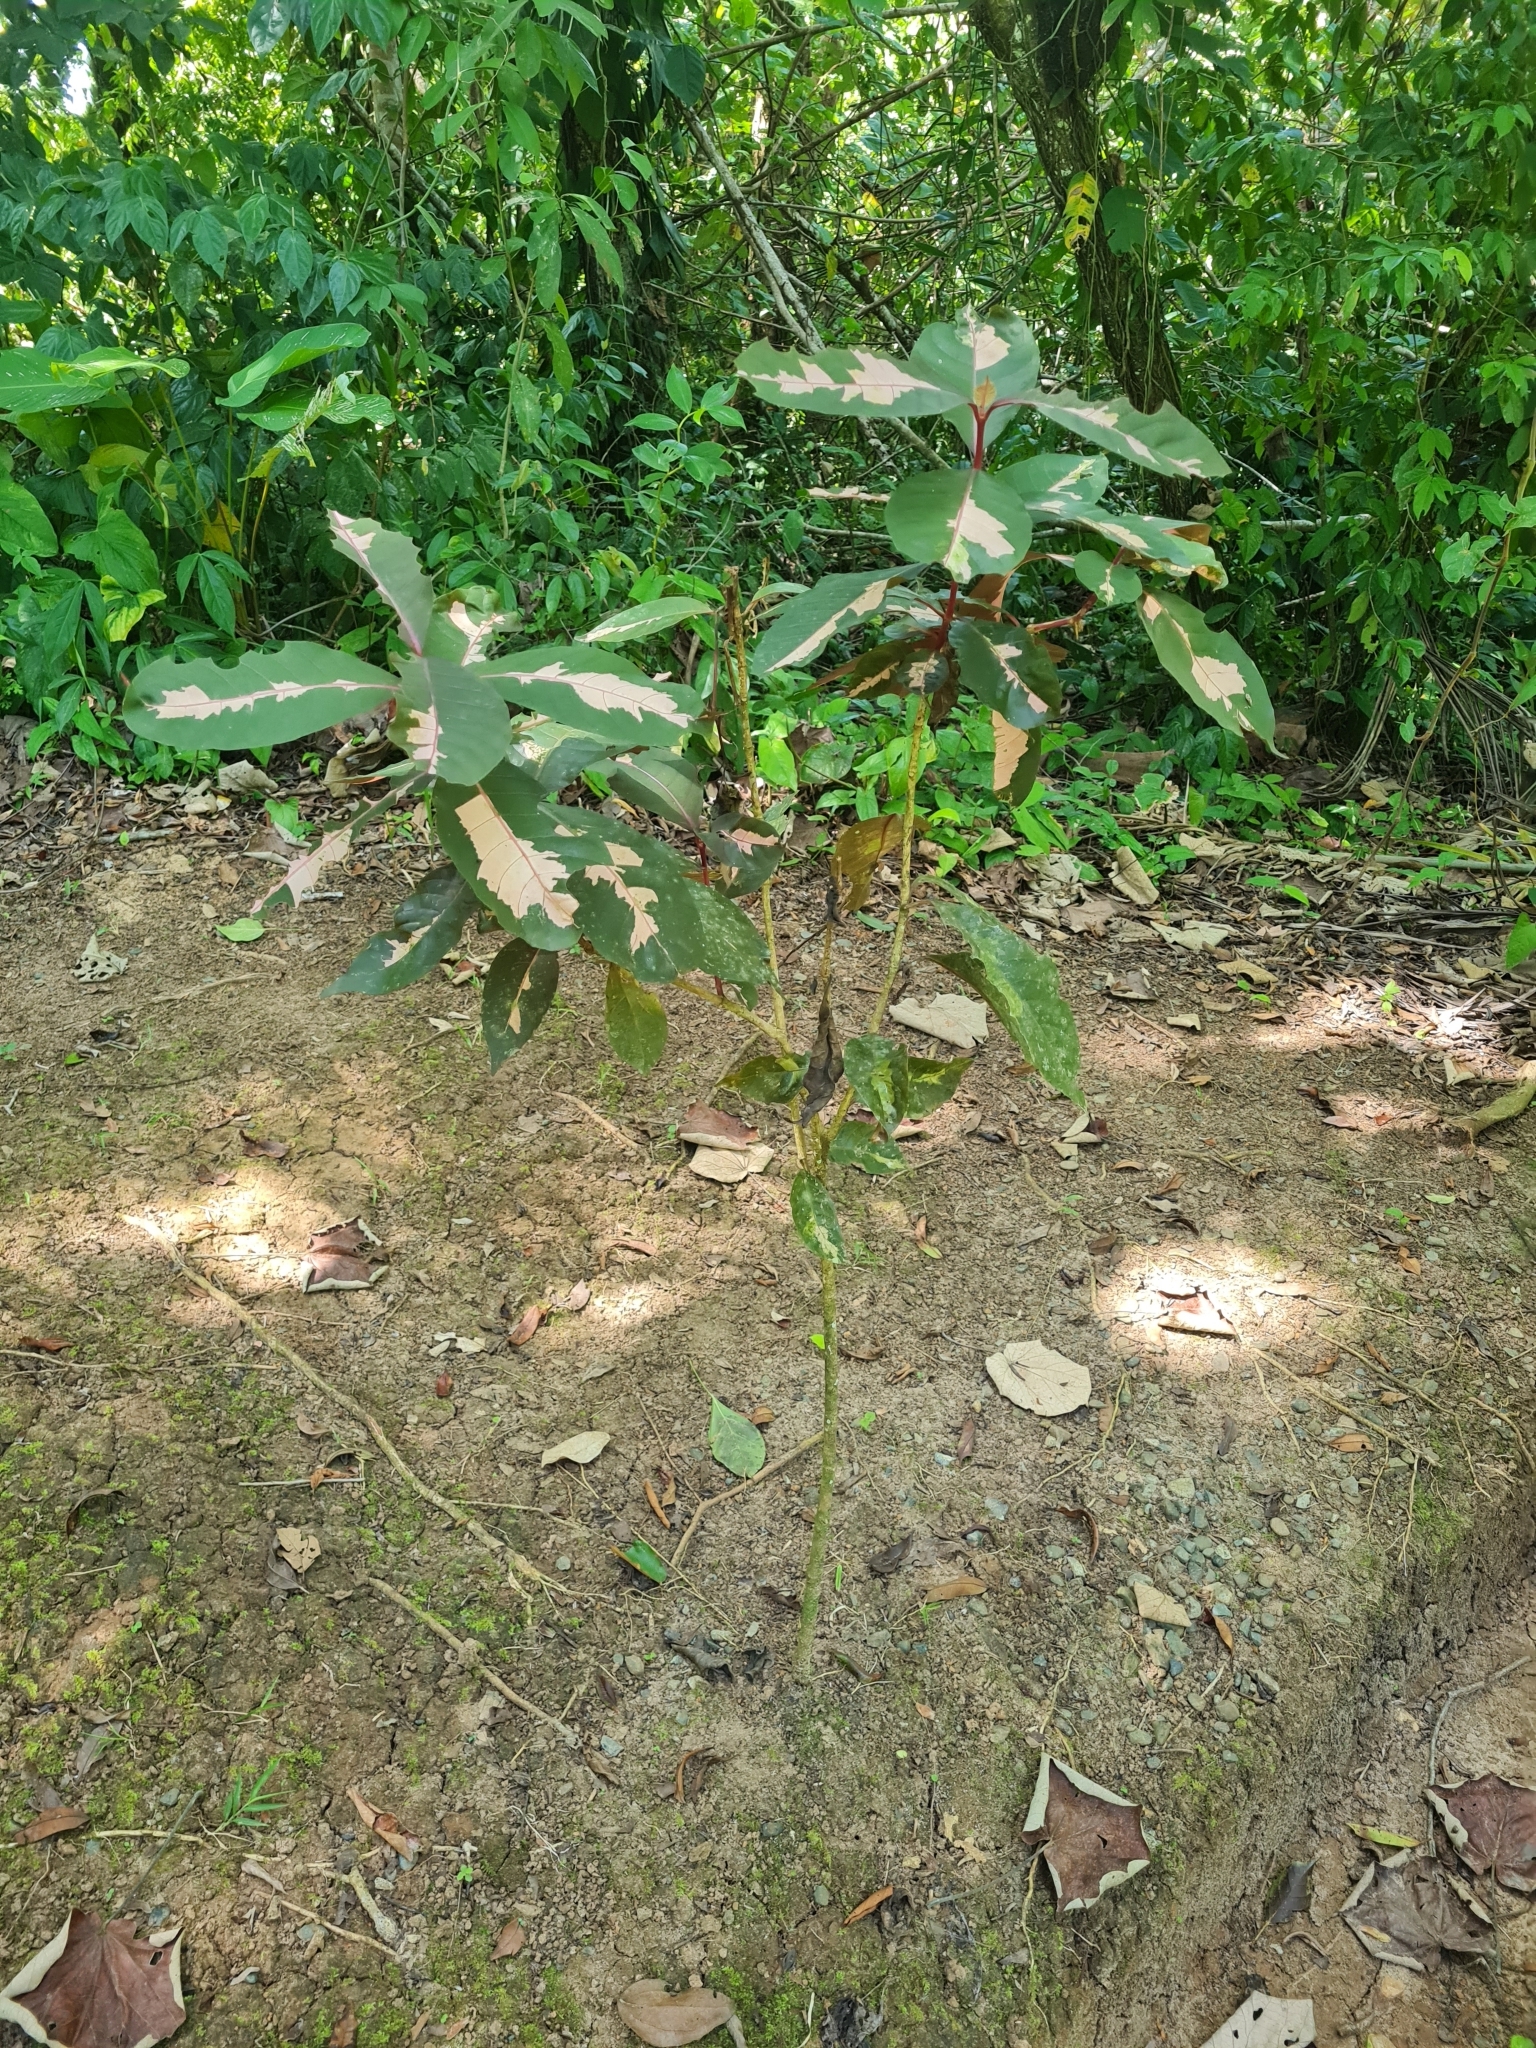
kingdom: Plantae
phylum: Tracheophyta
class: Magnoliopsida
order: Lamiales
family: Acanthaceae
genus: Graptophyllum
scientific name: Graptophyllum pictum
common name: Caricature-plant
